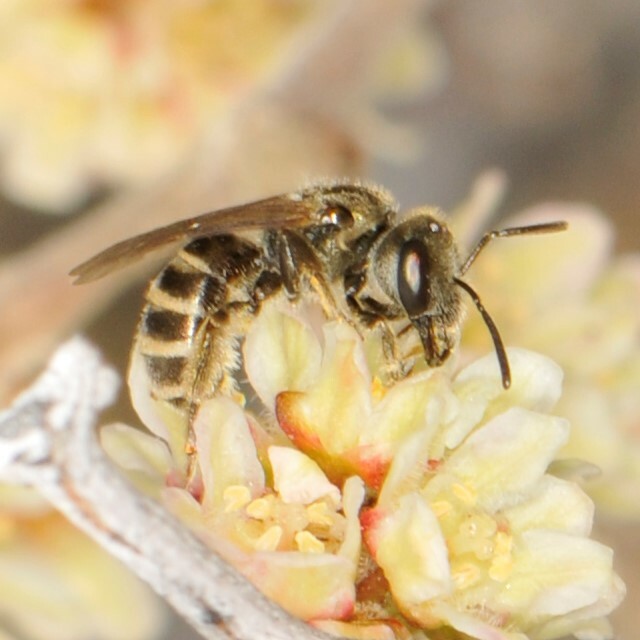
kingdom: Animalia
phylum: Arthropoda
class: Insecta
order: Hymenoptera
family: Halictidae
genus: Seladonia
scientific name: Seladonia
